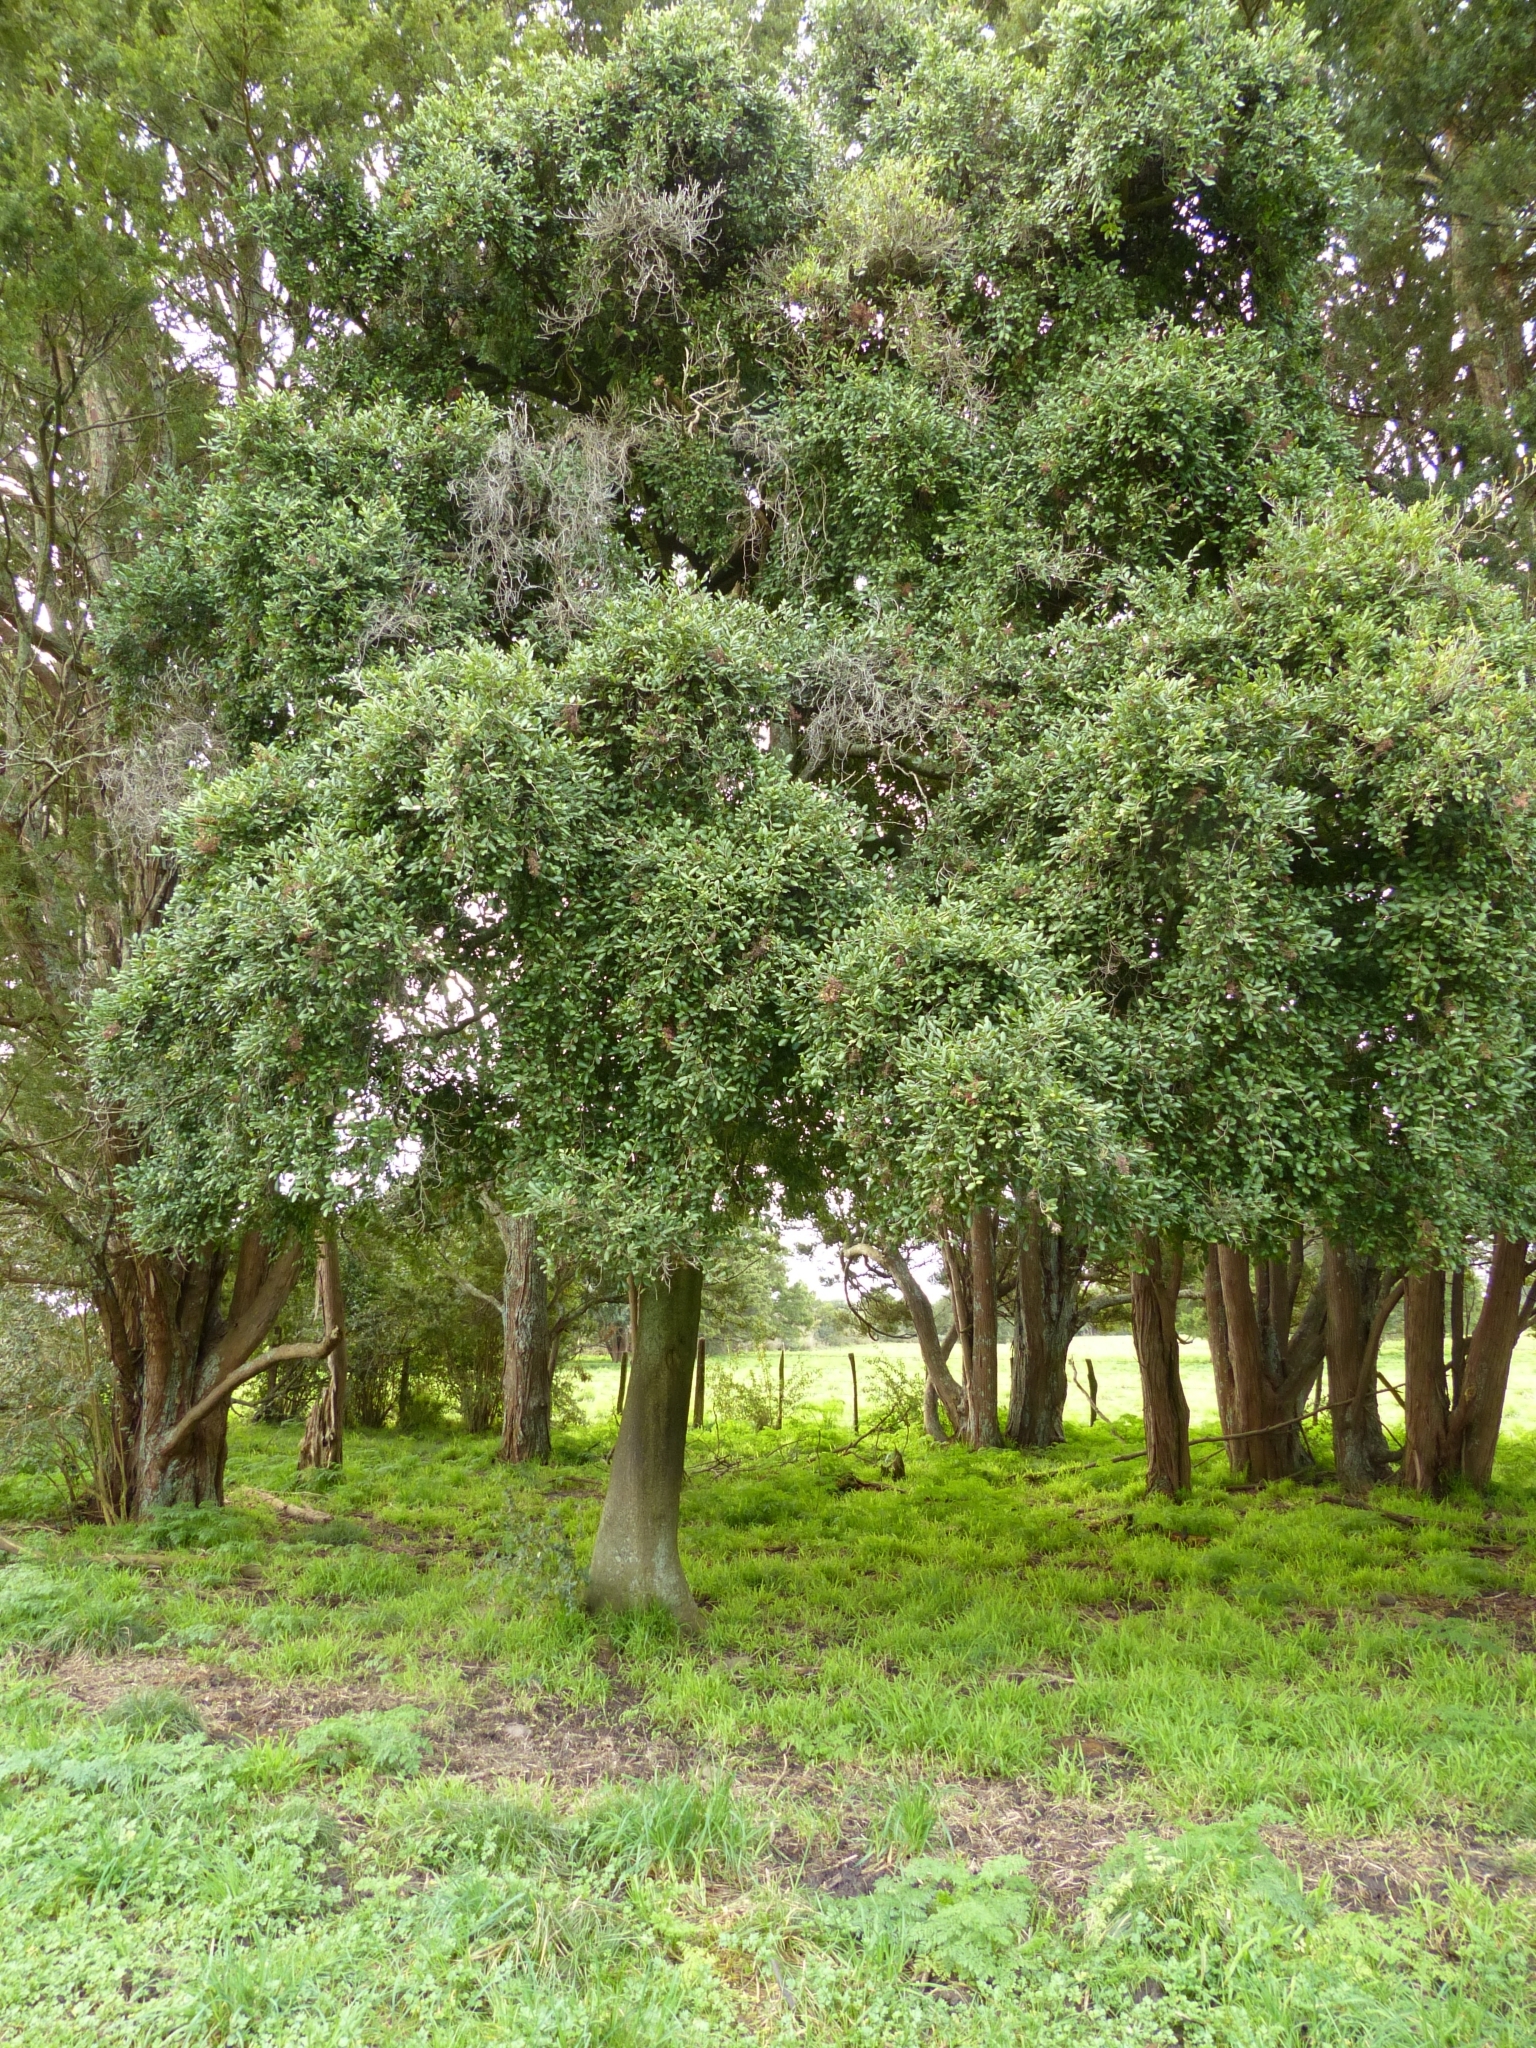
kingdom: Plantae
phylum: Tracheophyta
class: Magnoliopsida
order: Rosales
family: Moraceae
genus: Paratrophis
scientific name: Paratrophis banksii
